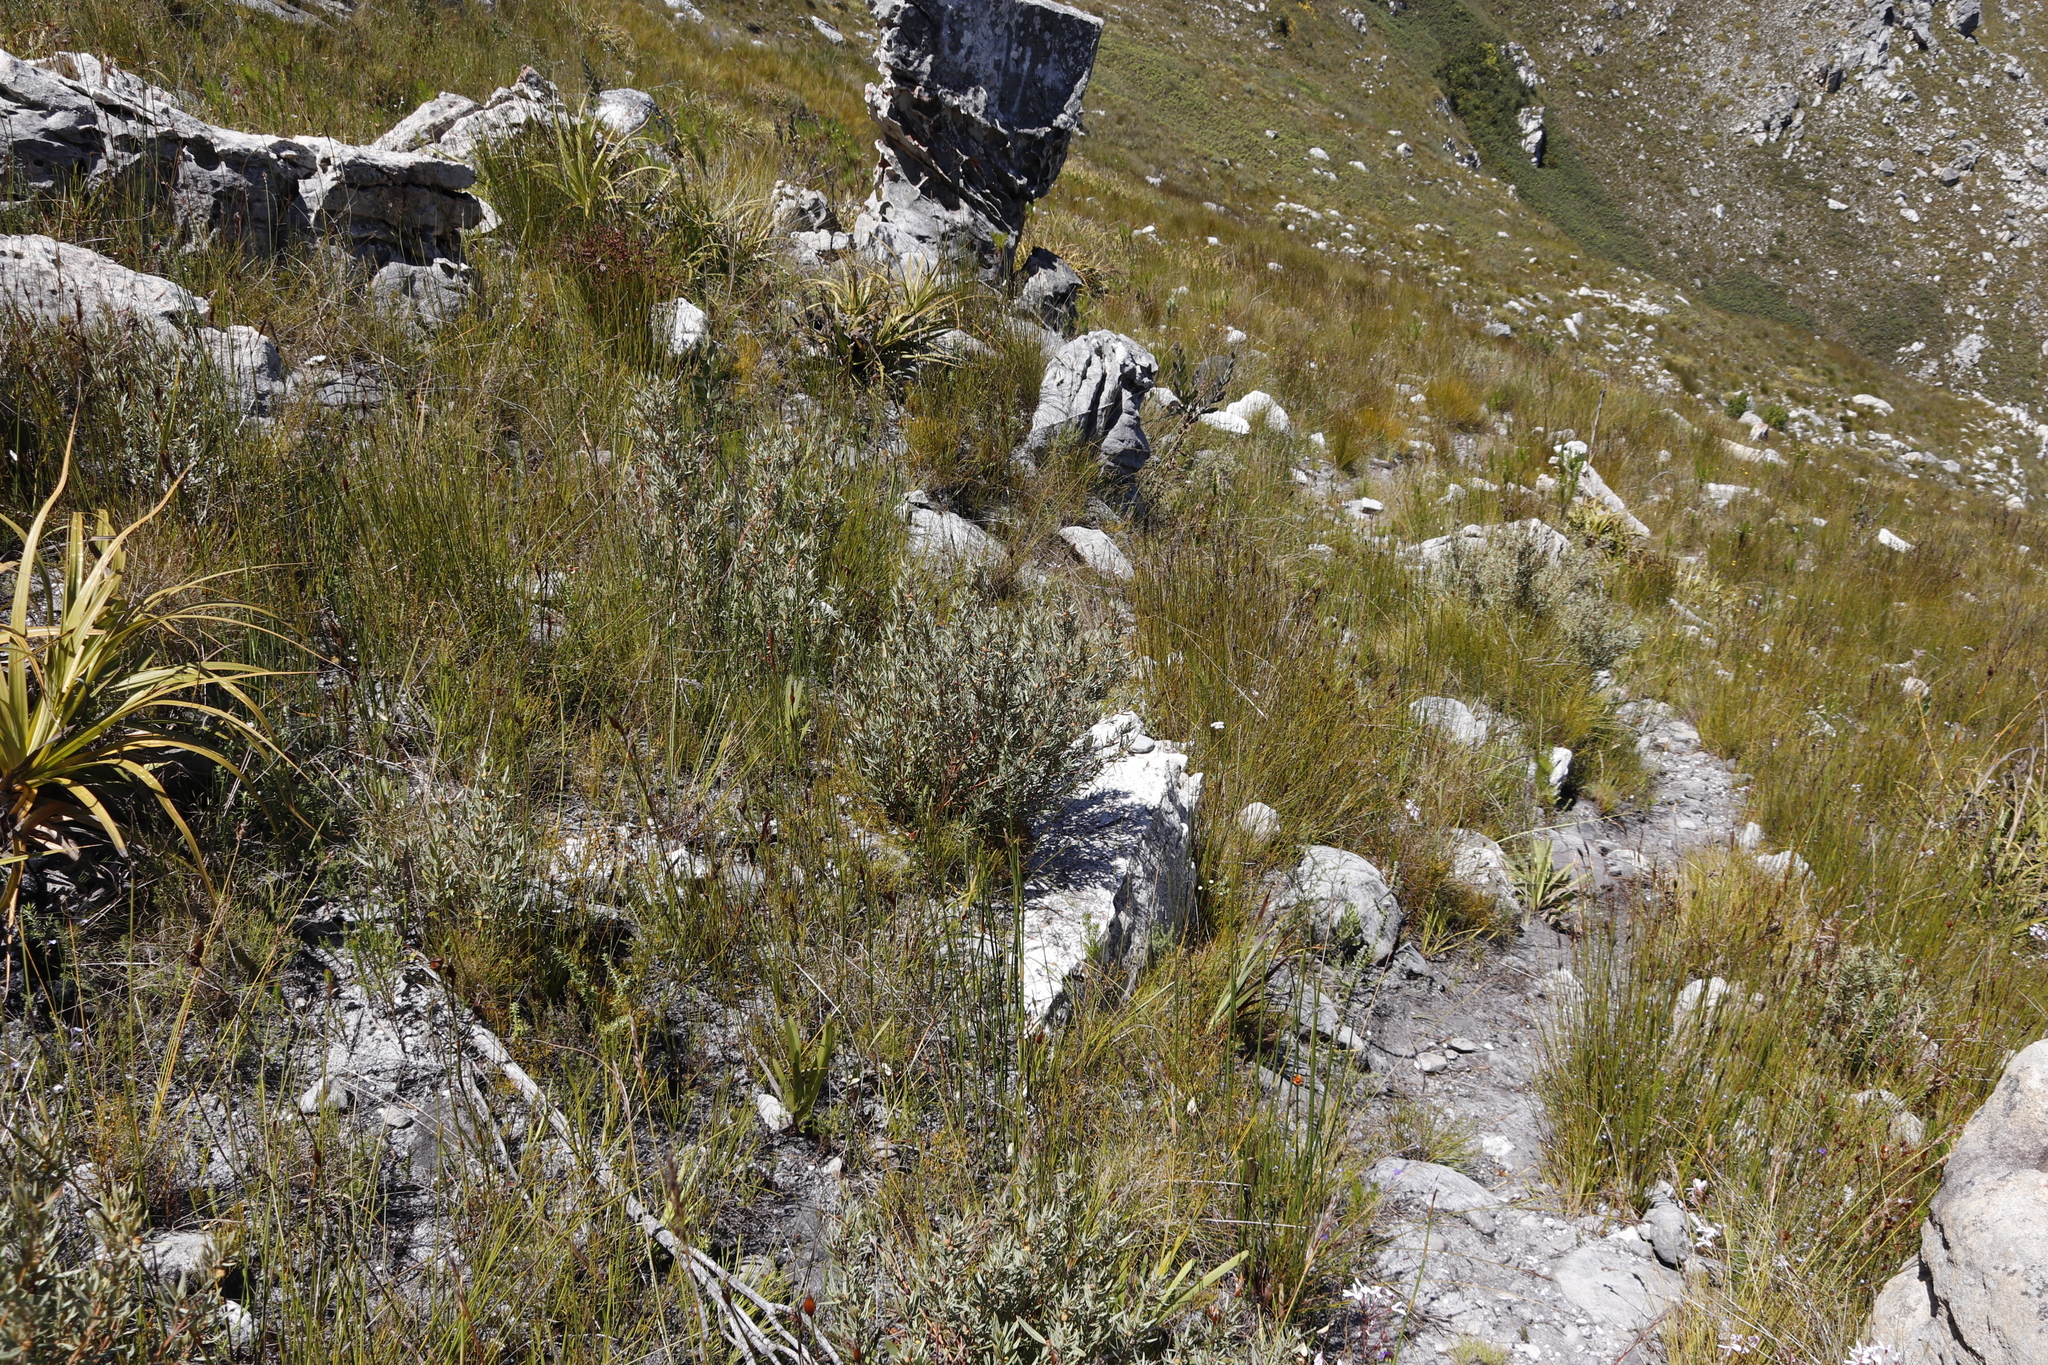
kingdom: Plantae
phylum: Tracheophyta
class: Magnoliopsida
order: Cornales
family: Grubbiaceae
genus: Grubbia
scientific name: Grubbia tomentosa
